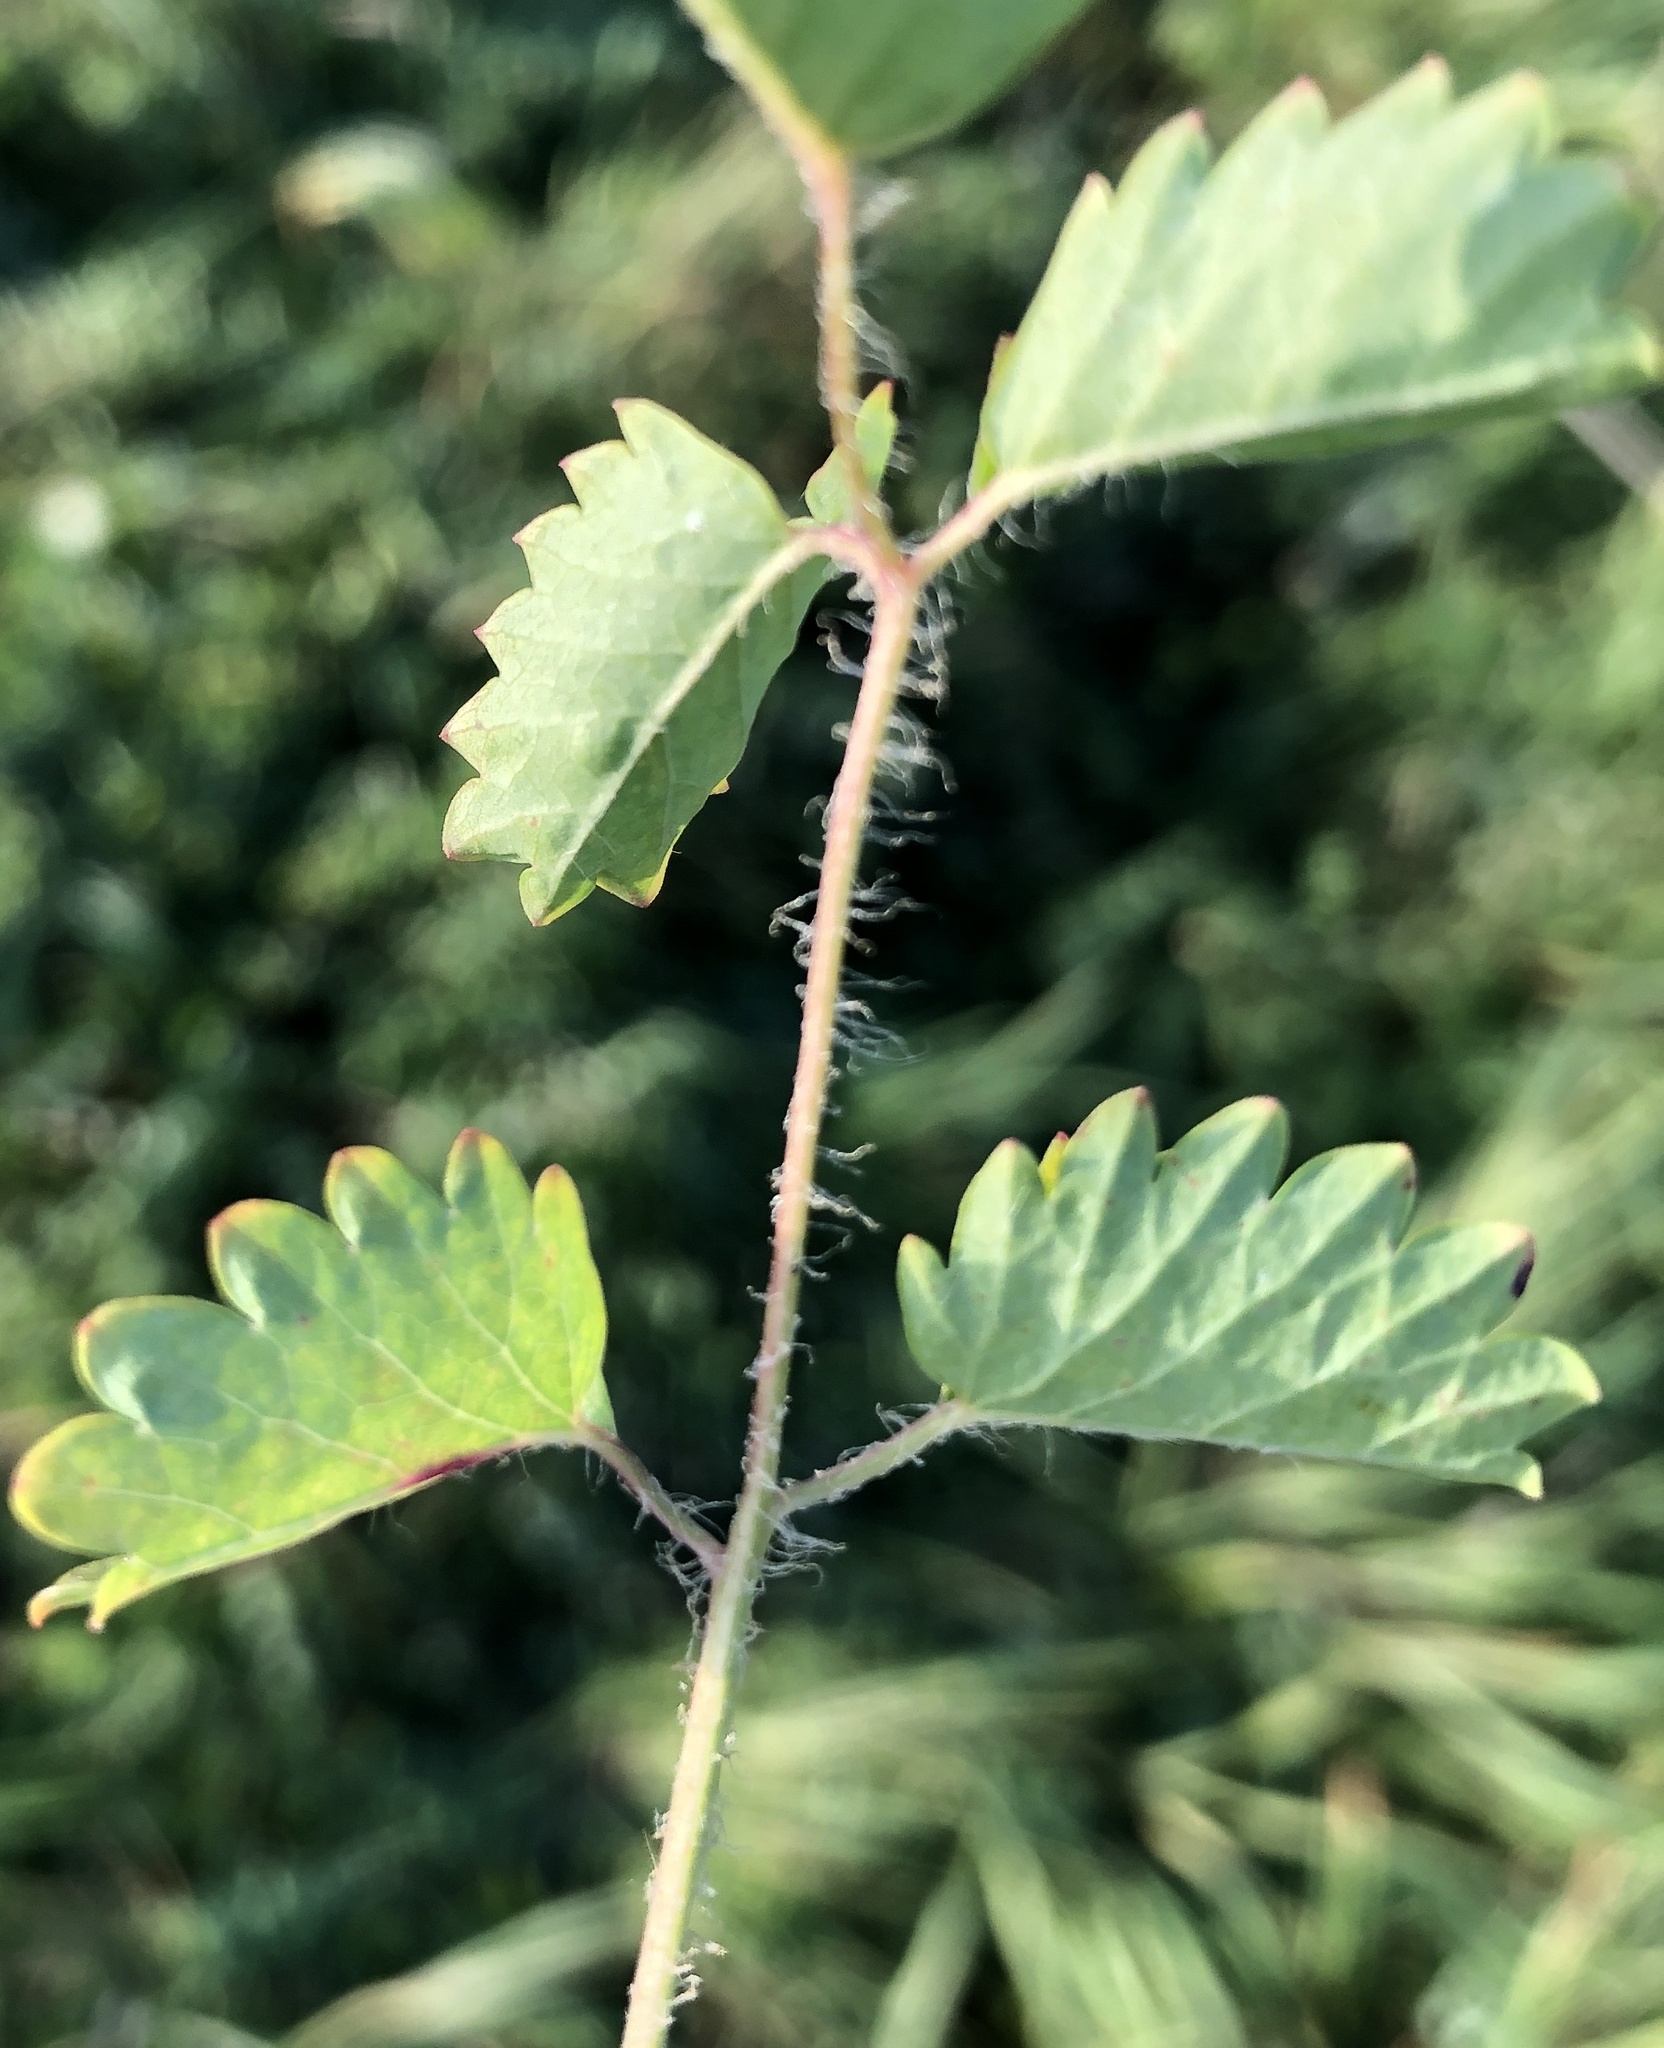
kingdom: Plantae
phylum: Tracheophyta
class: Magnoliopsida
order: Rosales
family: Rosaceae
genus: Poterium
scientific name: Poterium sanguisorba
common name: Salad burnet
